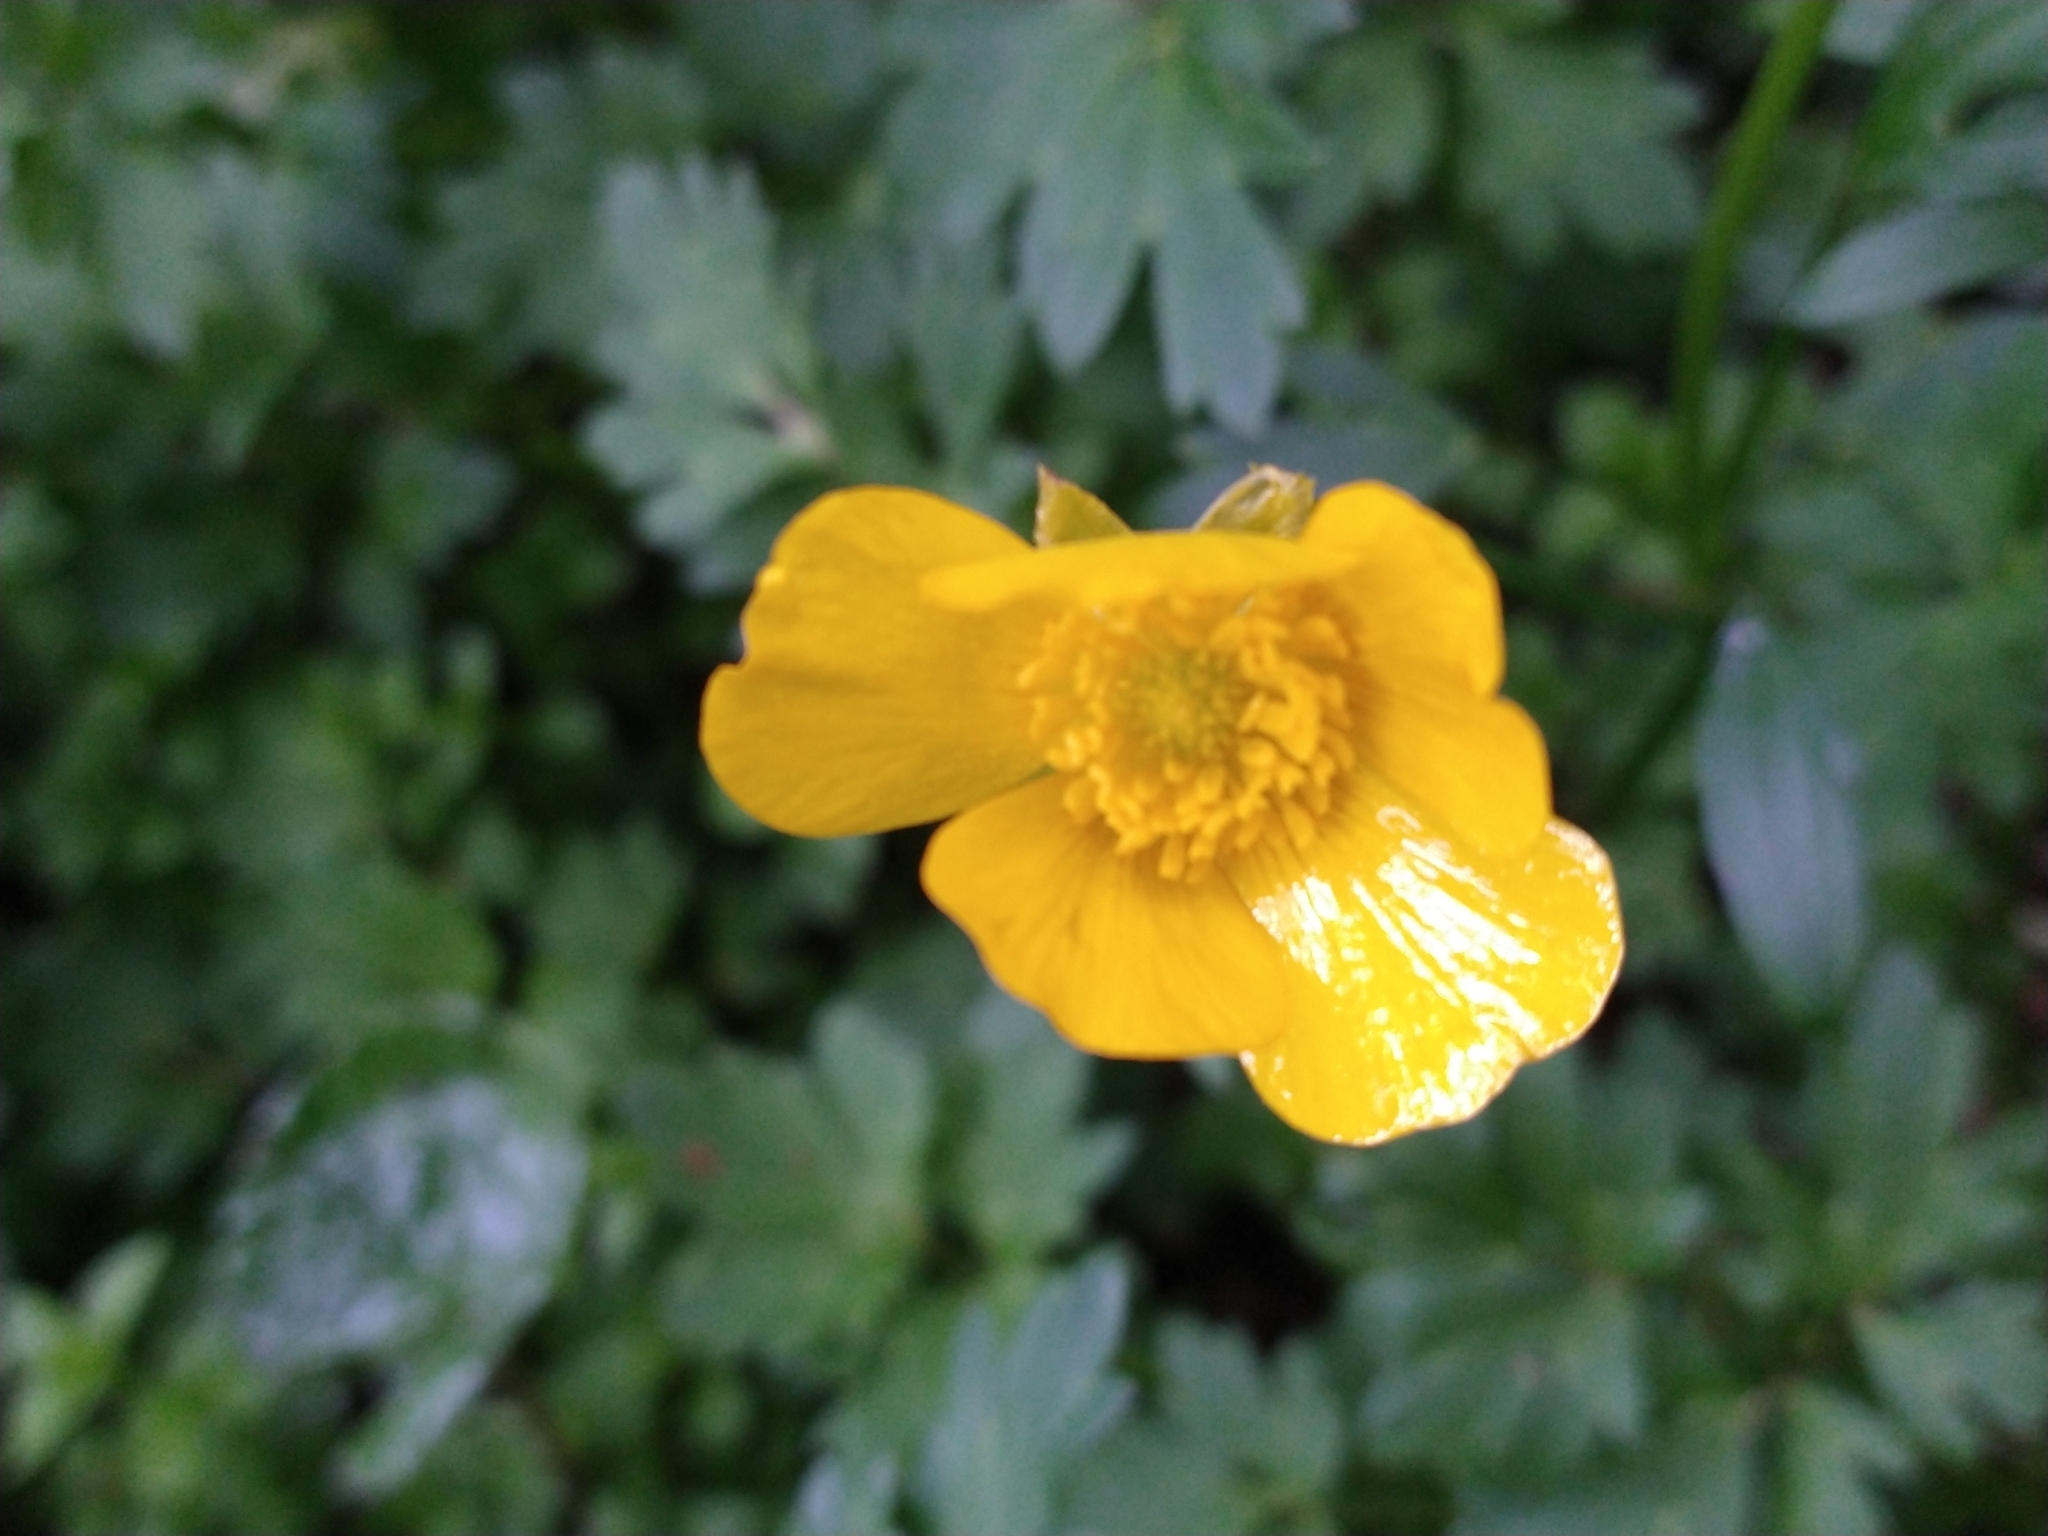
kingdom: Plantae
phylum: Tracheophyta
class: Magnoliopsida
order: Ranunculales
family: Ranunculaceae
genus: Ranunculus
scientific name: Ranunculus repens
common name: Creeping buttercup
